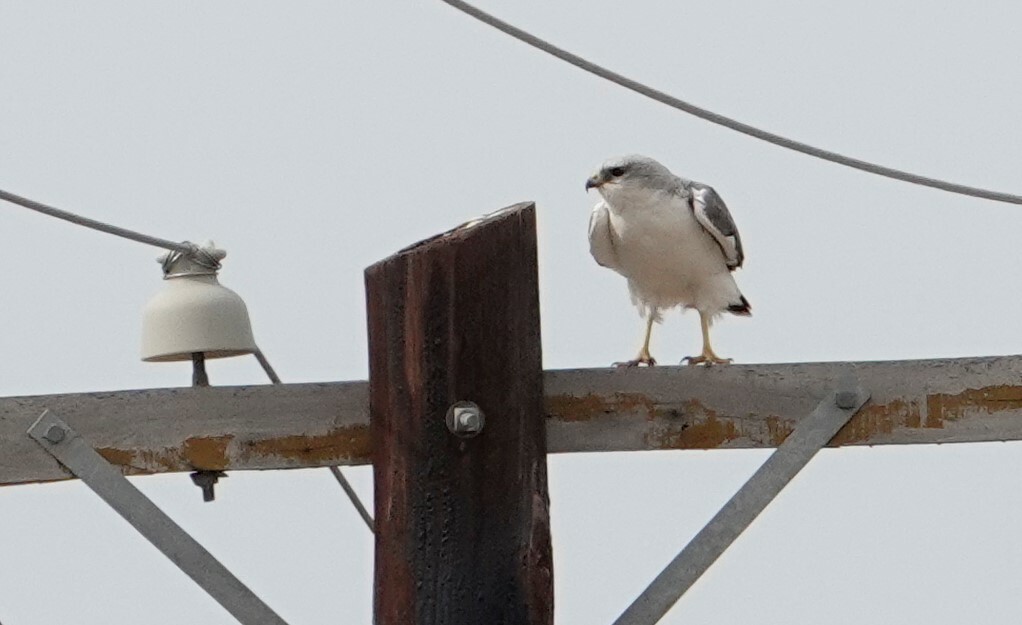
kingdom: Animalia
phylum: Chordata
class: Aves
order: Accipitriformes
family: Accipitridae
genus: Buteo
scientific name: Buteo polyosoma
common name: Variable hawk
